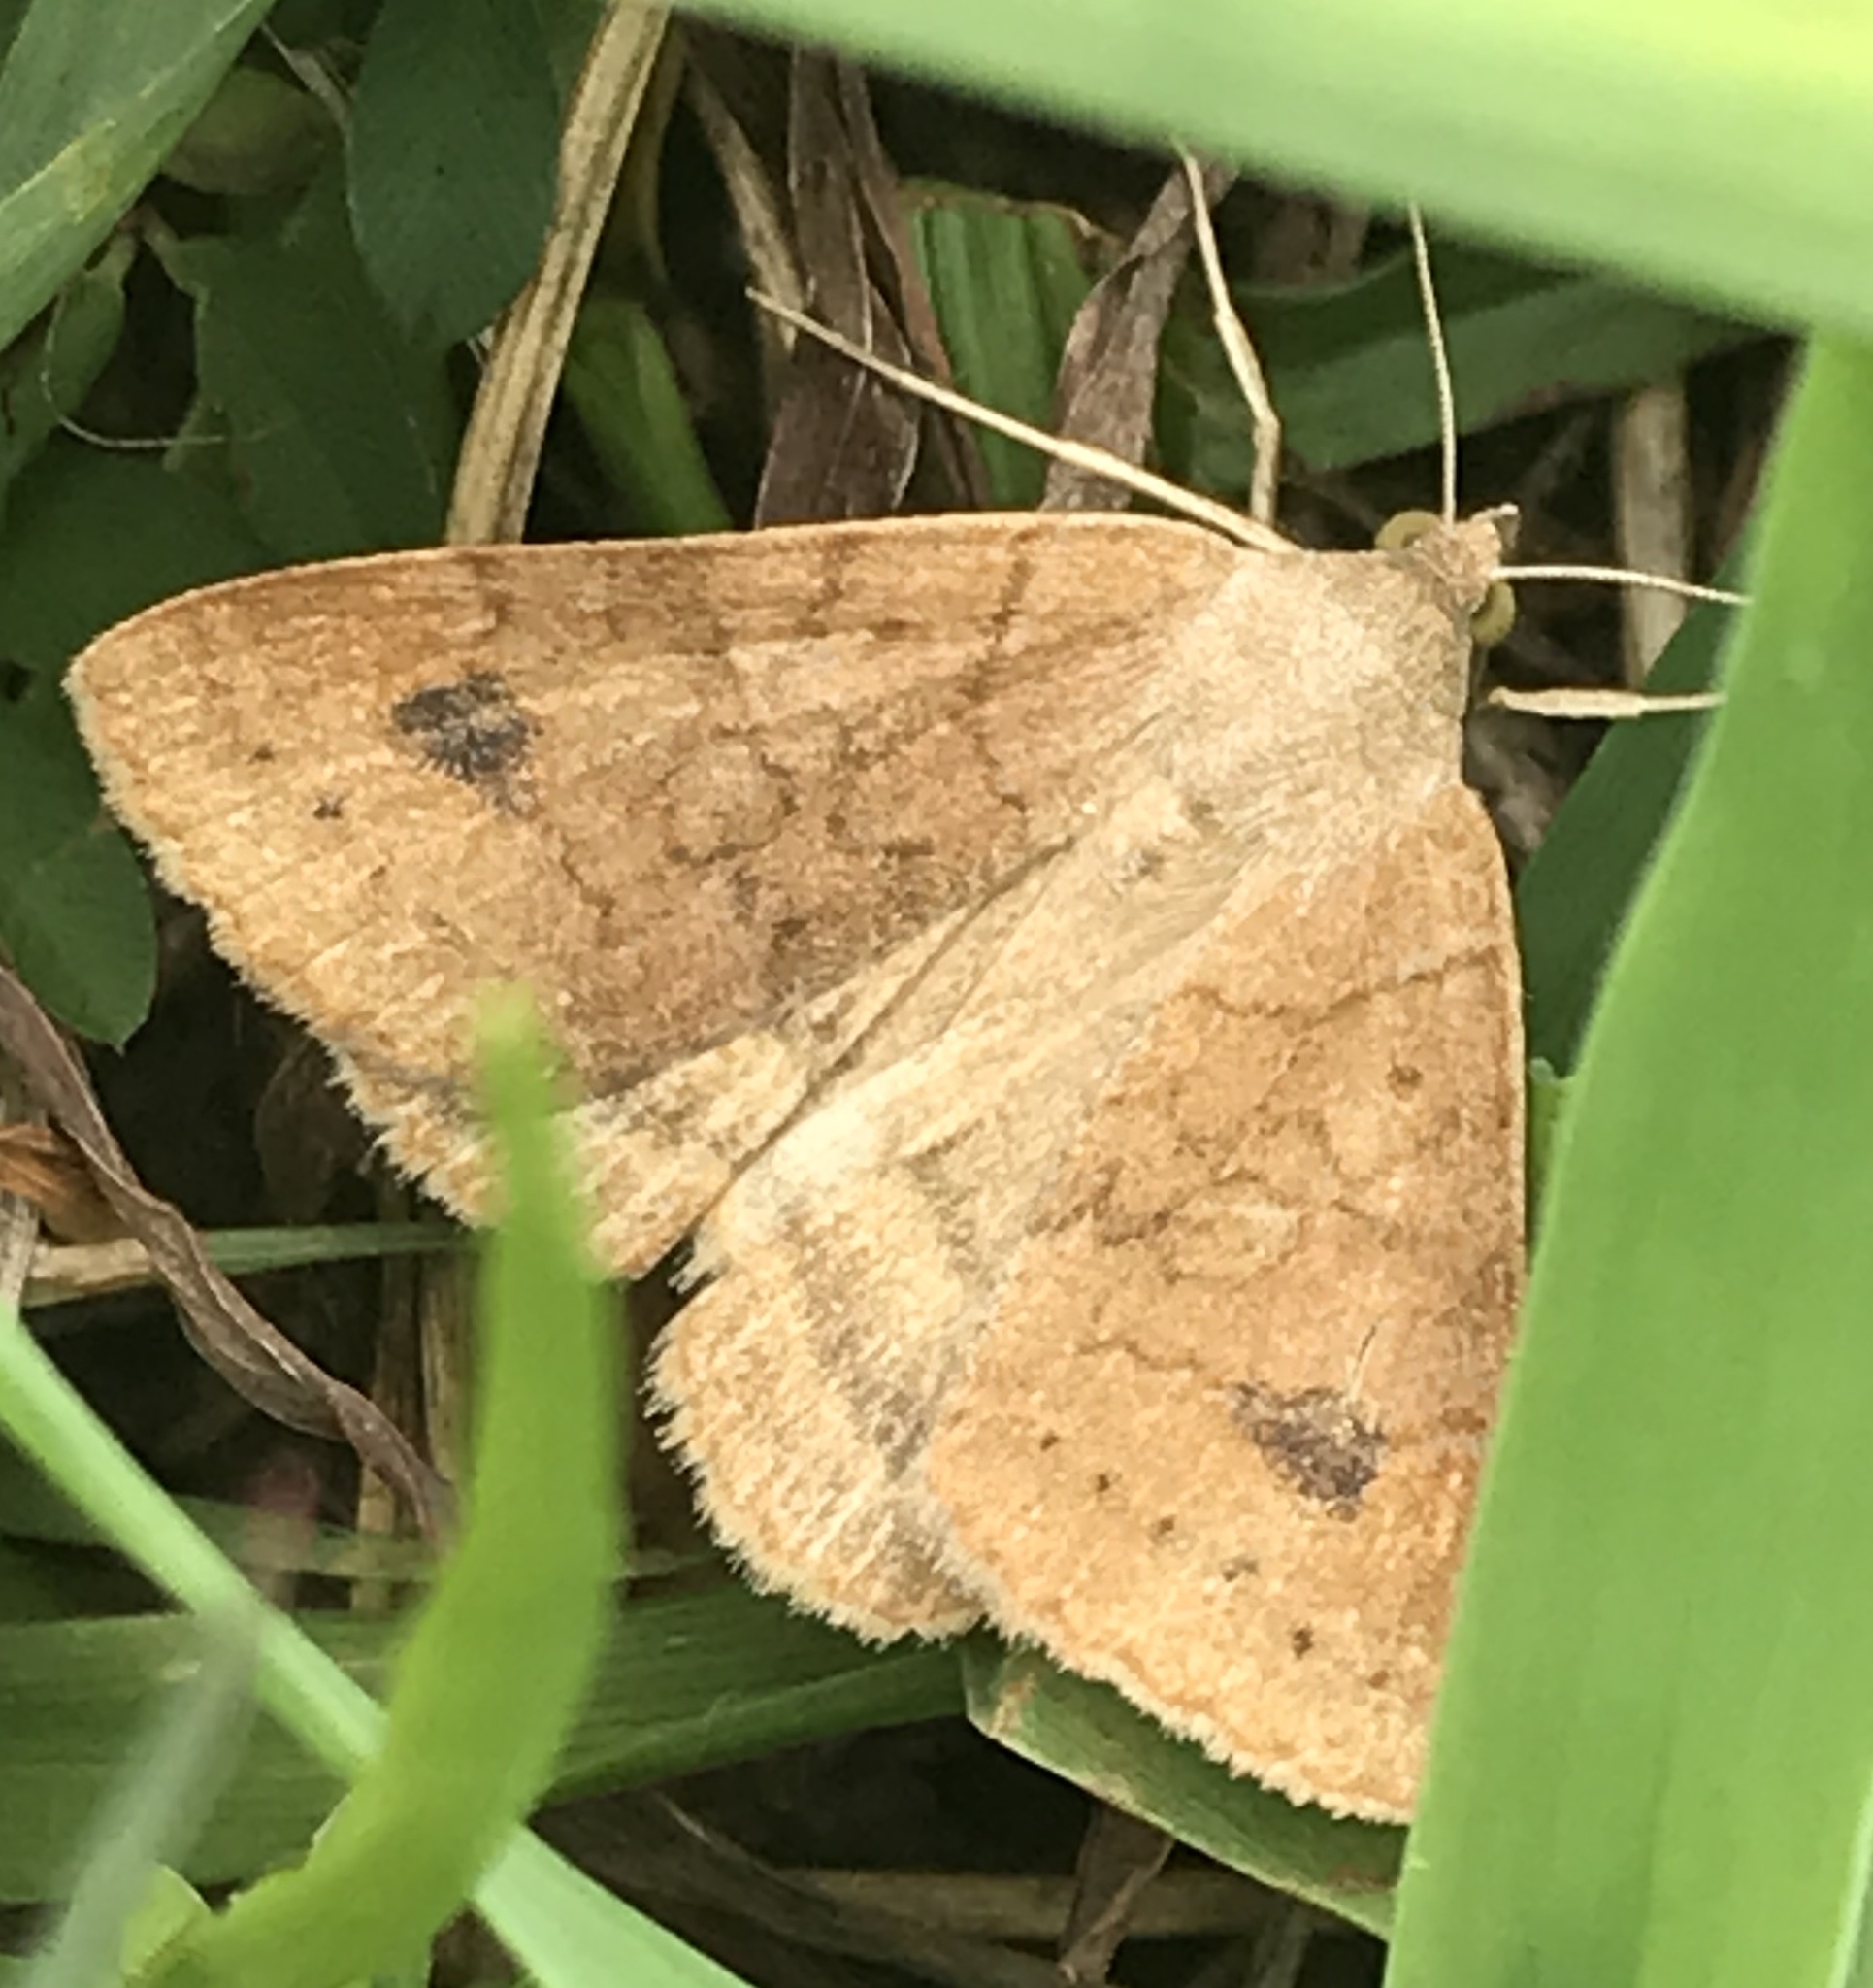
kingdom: Animalia
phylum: Arthropoda
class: Insecta
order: Lepidoptera
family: Erebidae
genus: Caenurgia
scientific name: Caenurgia chloropha
